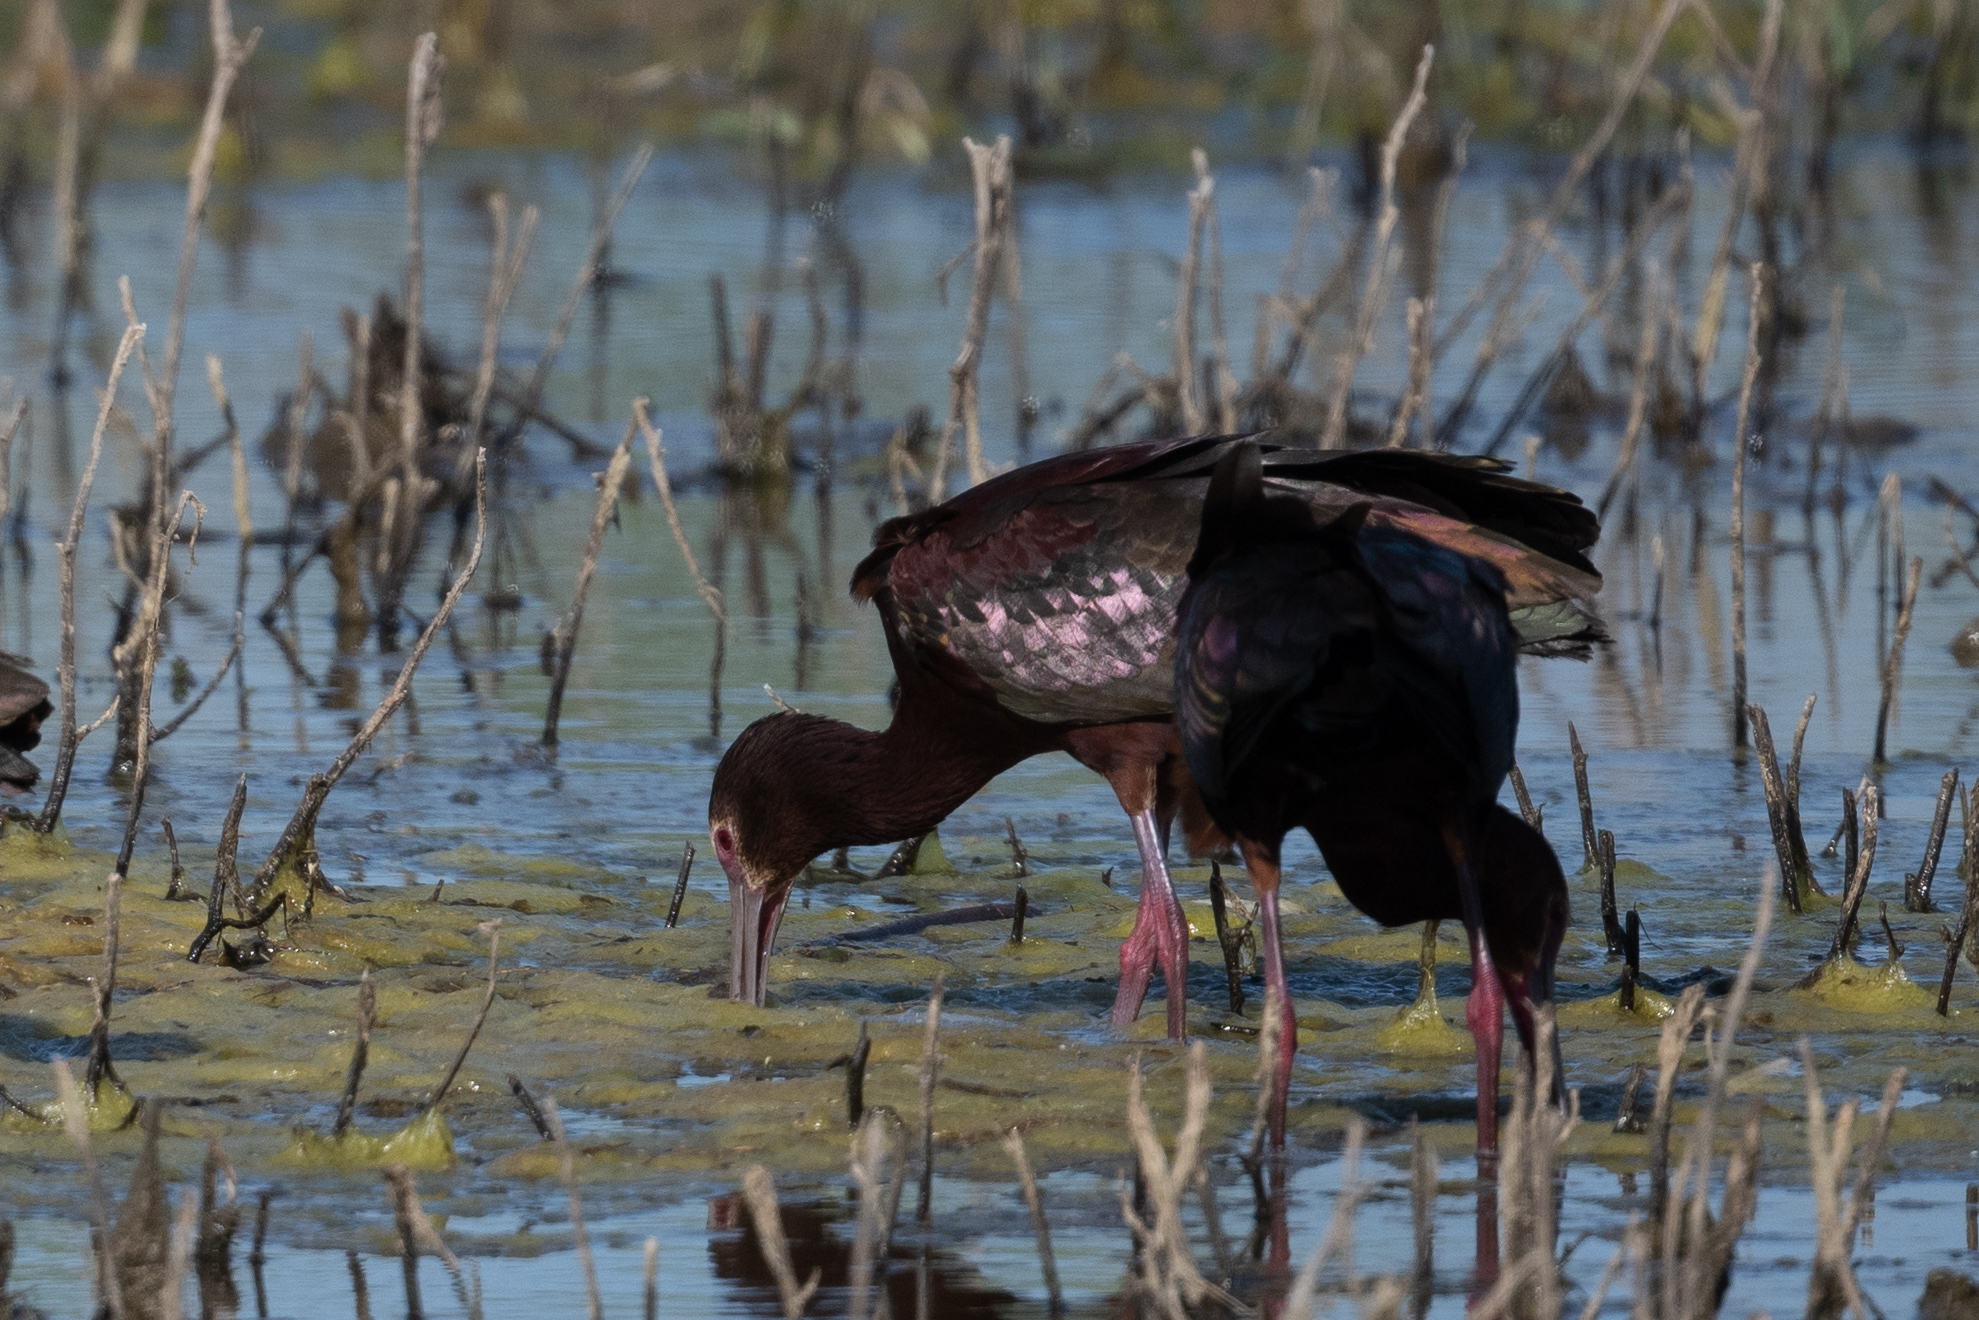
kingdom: Animalia
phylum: Chordata
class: Aves
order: Pelecaniformes
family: Threskiornithidae
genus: Plegadis
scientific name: Plegadis chihi
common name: White-faced ibis
